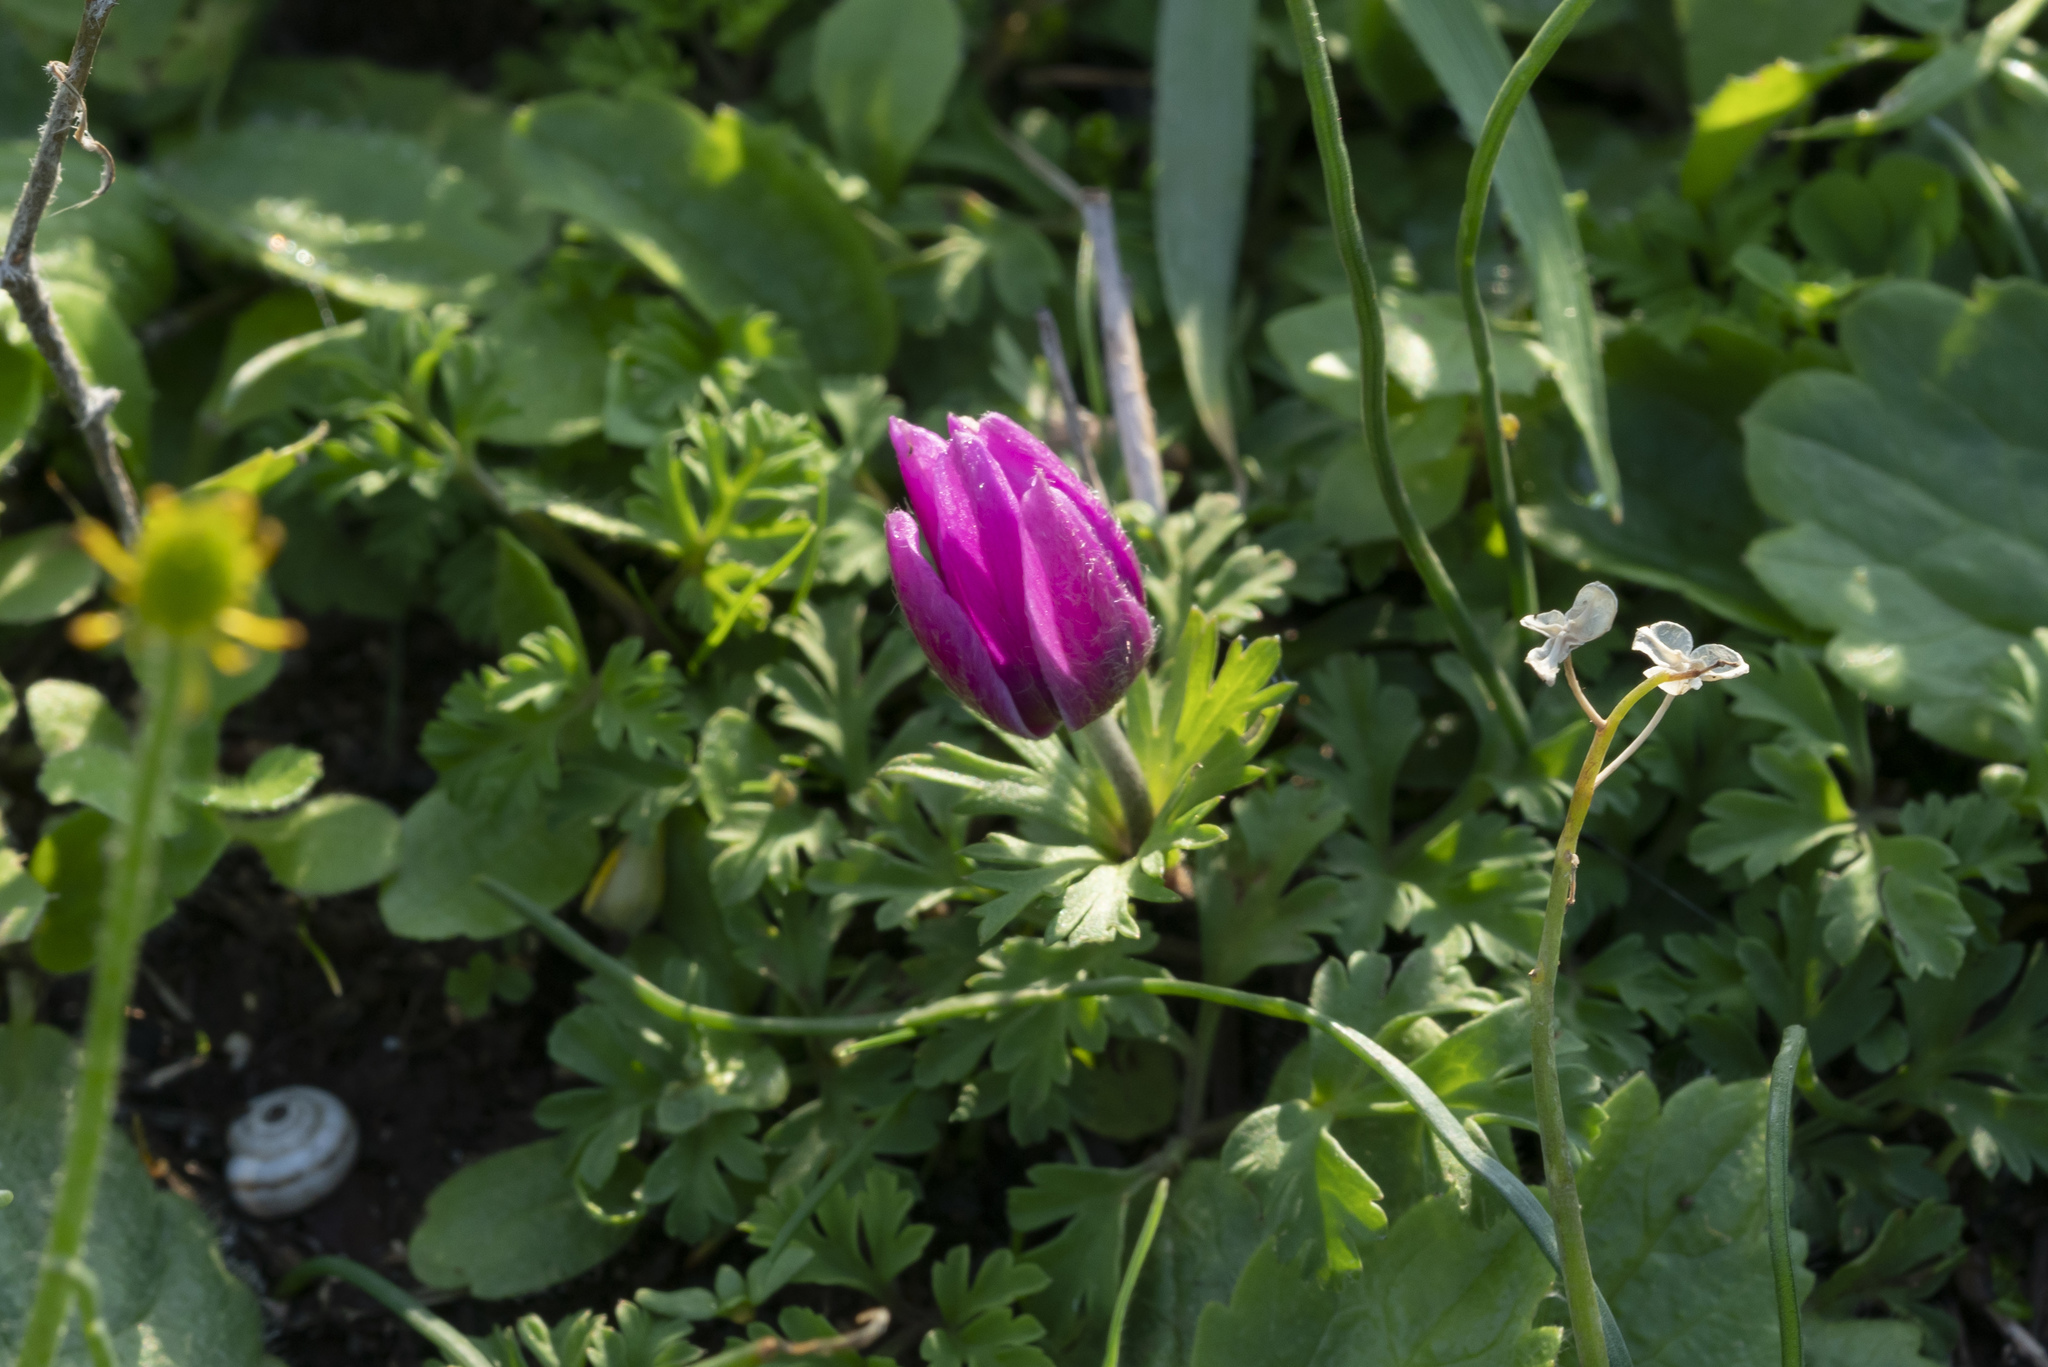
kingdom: Plantae
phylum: Tracheophyta
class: Magnoliopsida
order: Ranunculales
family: Ranunculaceae
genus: Anemone
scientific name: Anemone coronaria
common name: Poppy anemone
